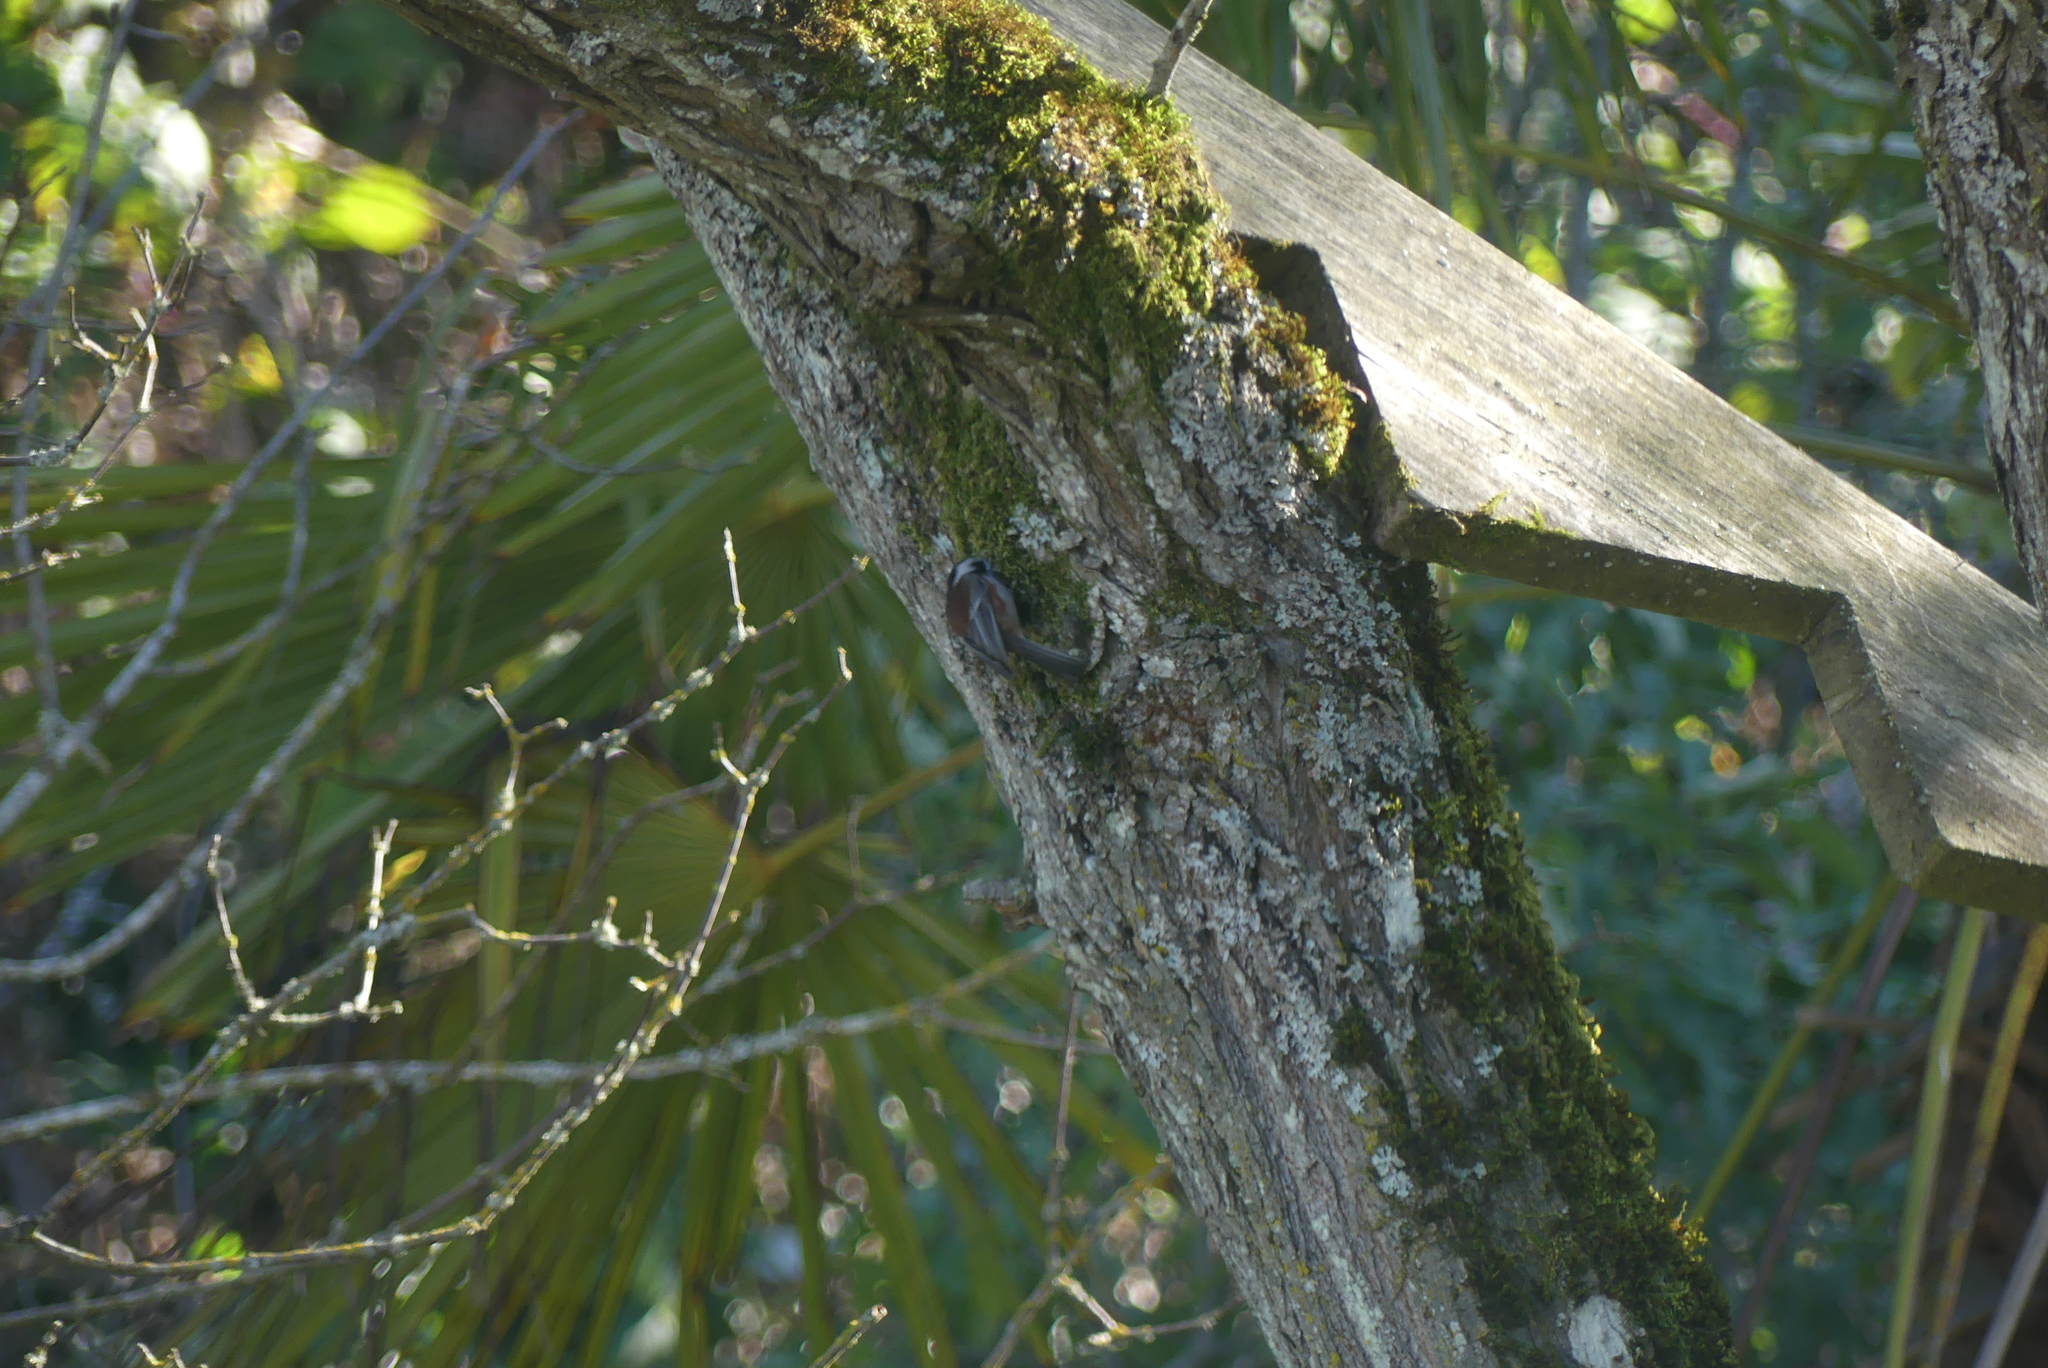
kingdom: Animalia
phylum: Chordata
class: Aves
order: Passeriformes
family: Paridae
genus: Poecile
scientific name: Poecile rufescens
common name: Chestnut-backed chickadee
